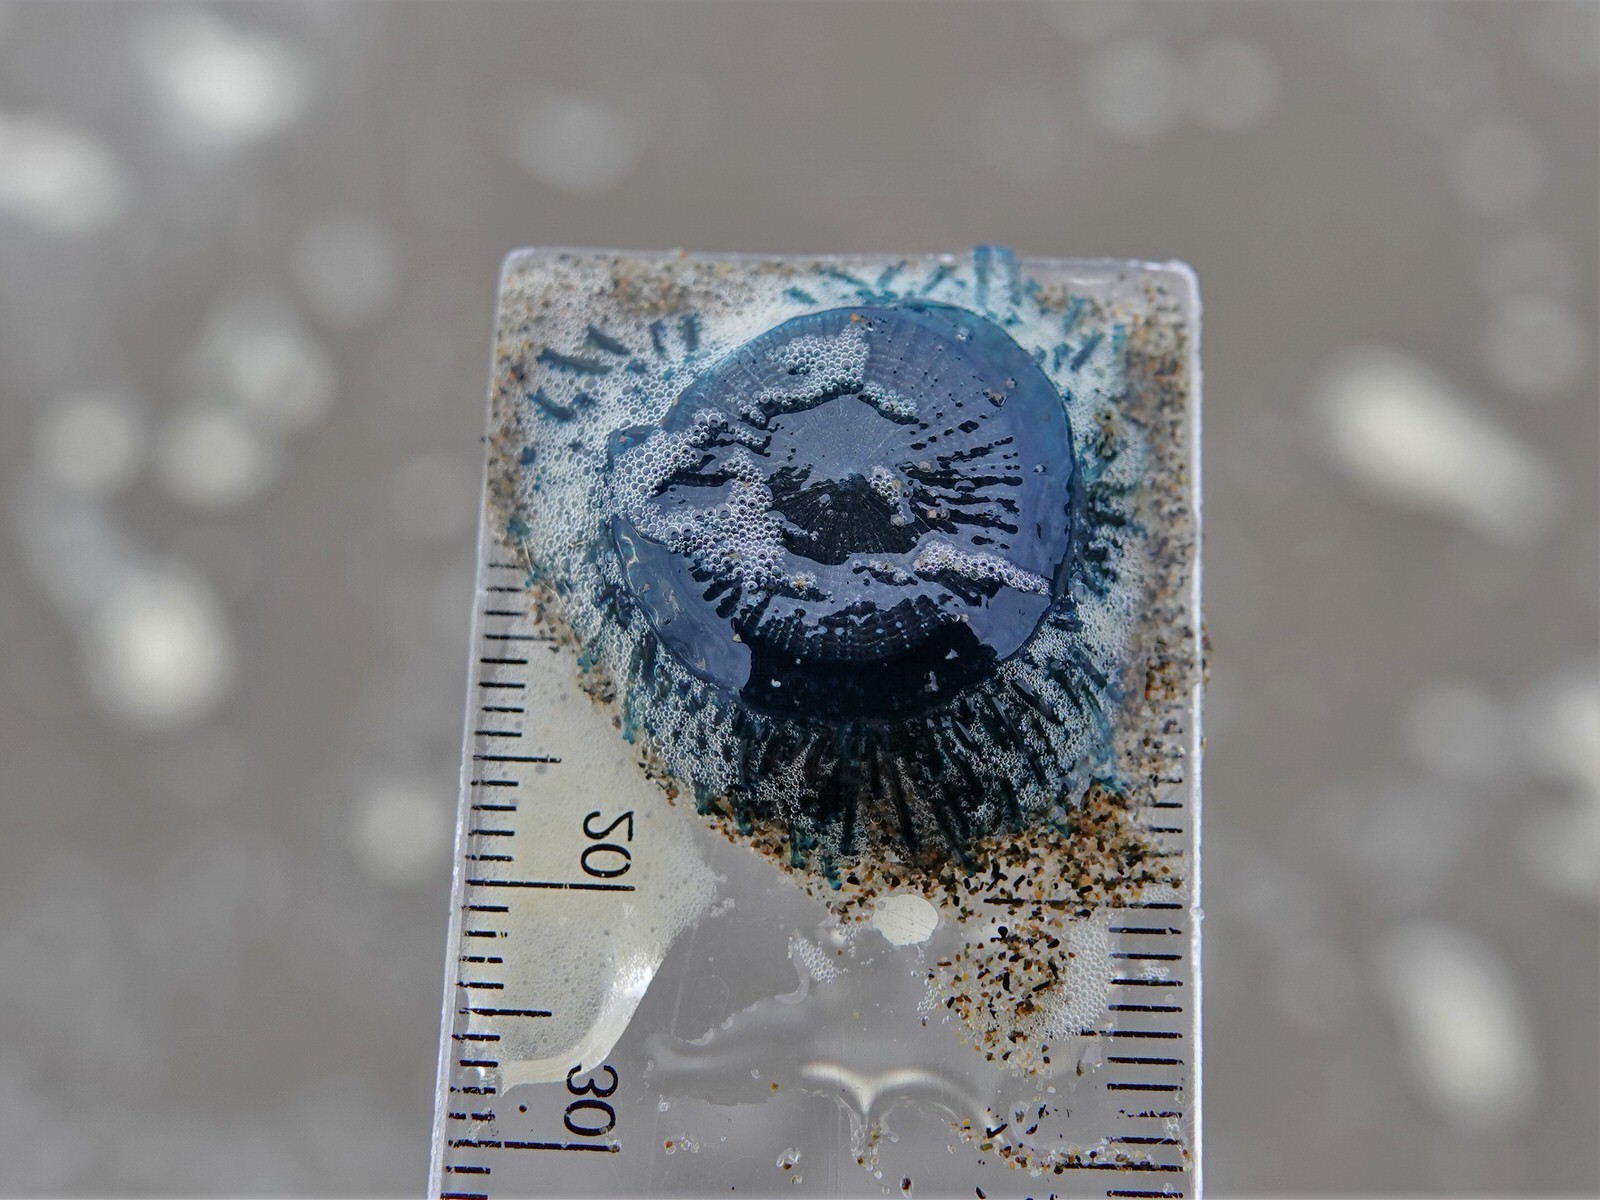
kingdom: Animalia
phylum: Cnidaria
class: Hydrozoa
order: Anthoathecata
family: Porpitidae
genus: Porpita
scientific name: Porpita porpita
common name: Blue button
